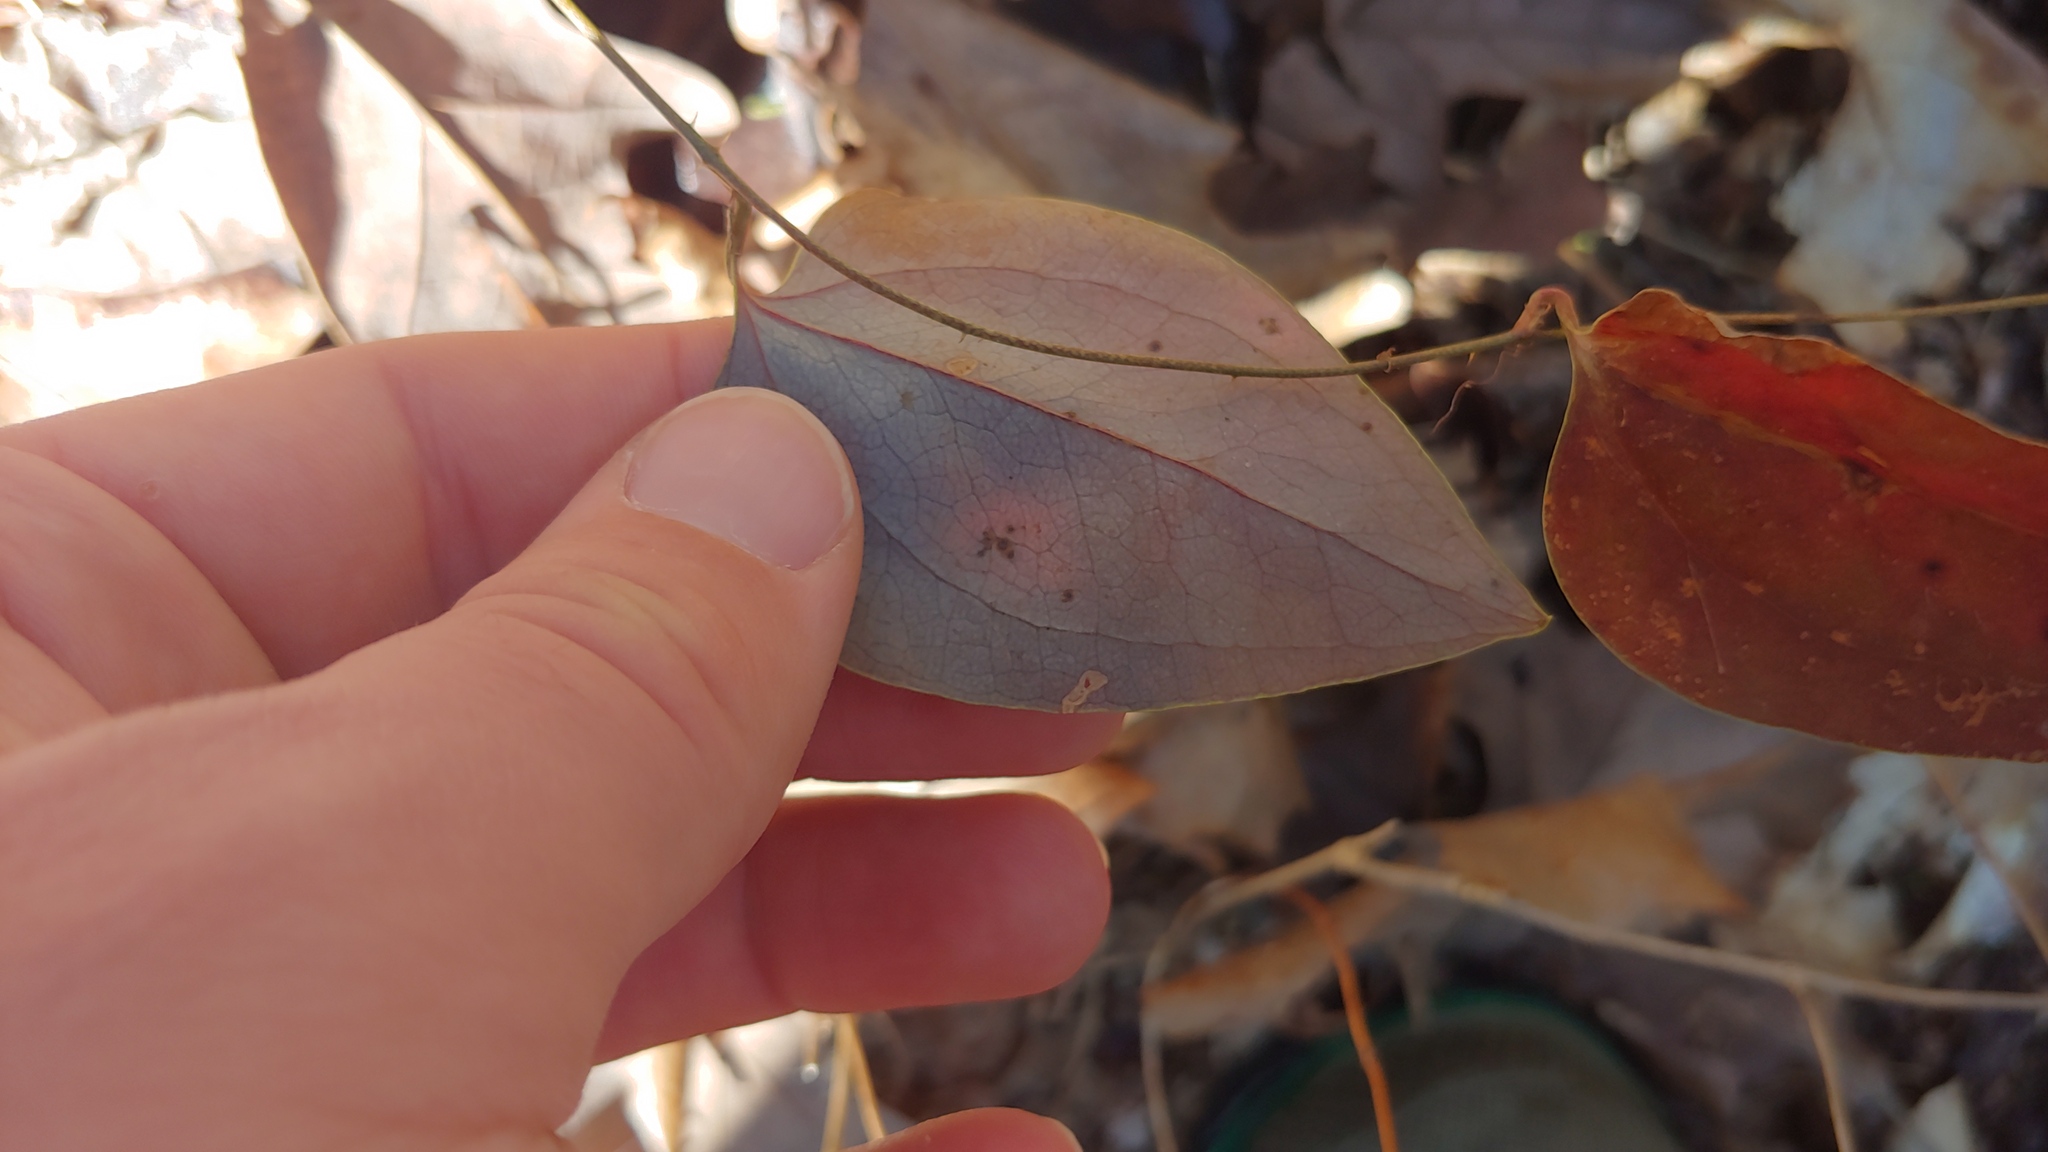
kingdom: Plantae
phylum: Tracheophyta
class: Liliopsida
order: Liliales
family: Smilacaceae
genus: Smilax
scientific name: Smilax glauca
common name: Cat greenbrier
